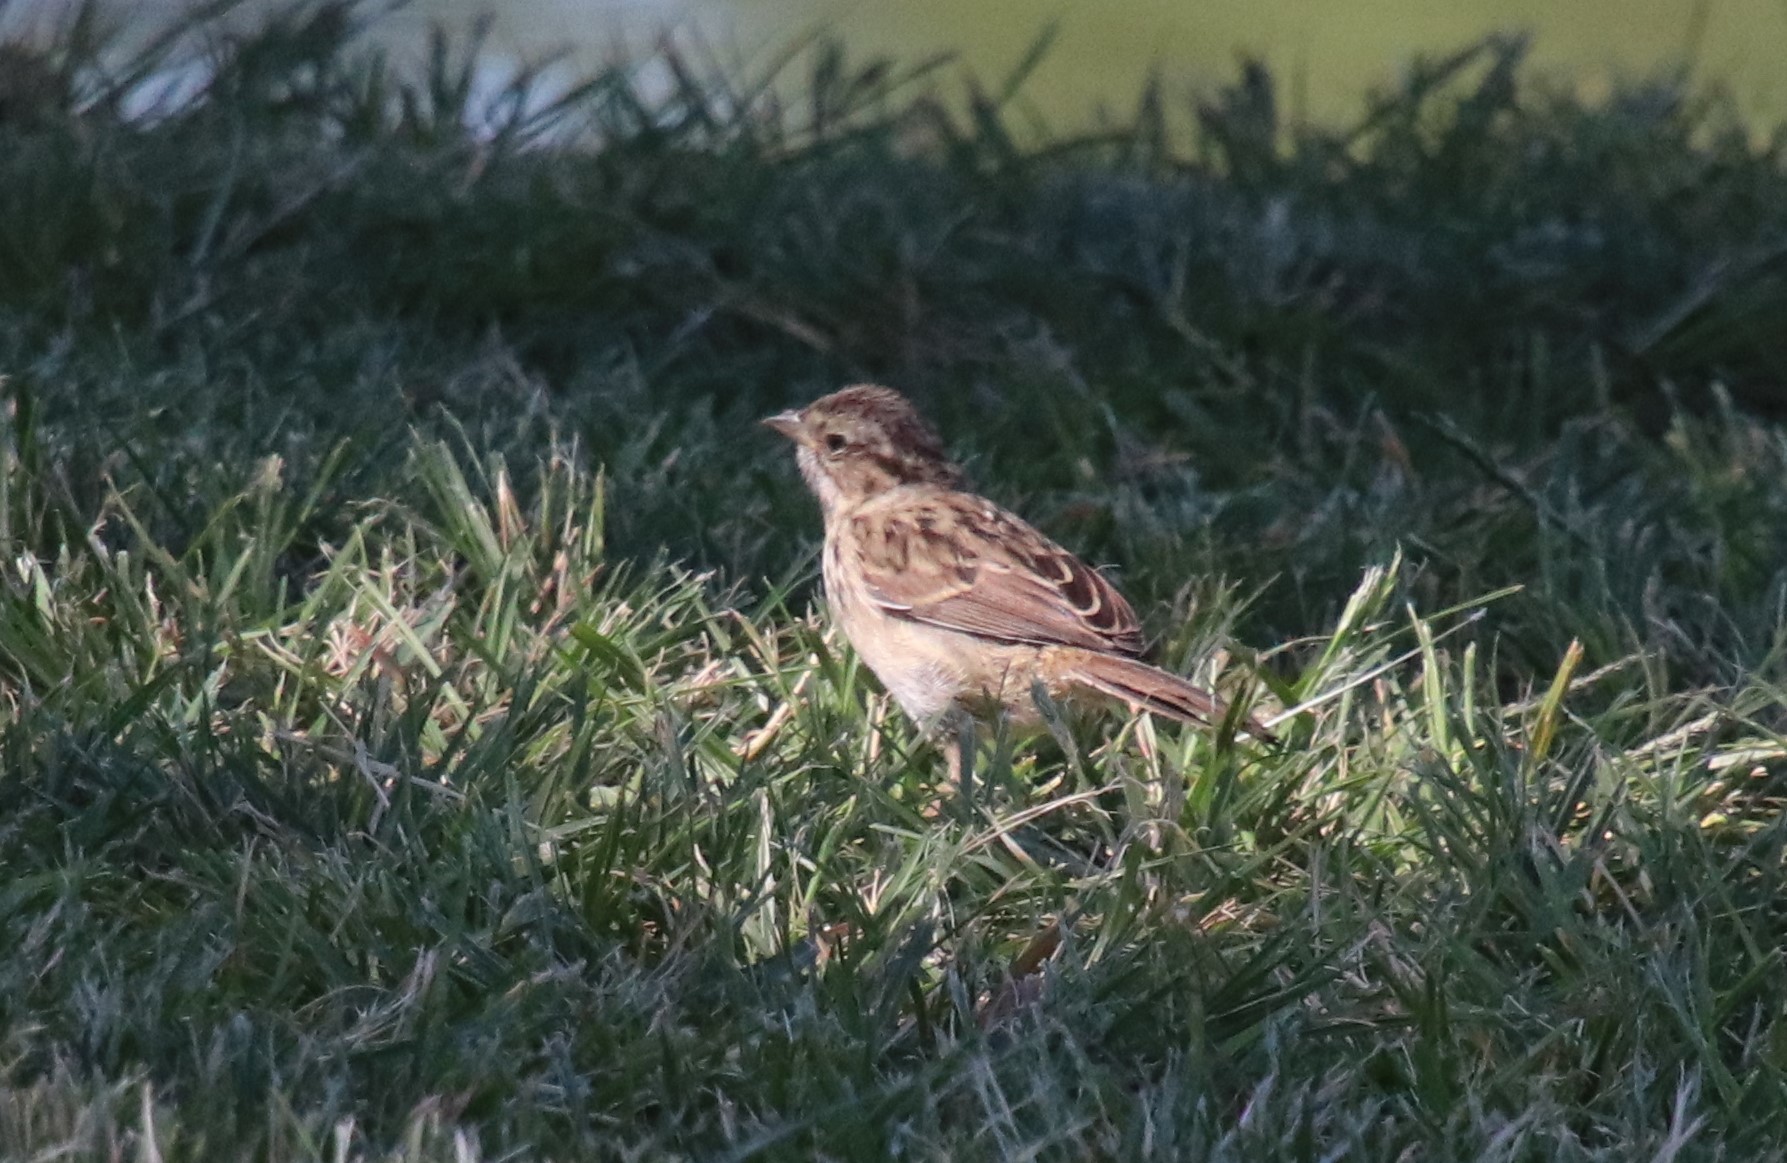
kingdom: Animalia
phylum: Chordata
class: Aves
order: Passeriformes
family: Passerellidae
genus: Melospiza
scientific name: Melospiza melodia
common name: Song sparrow
